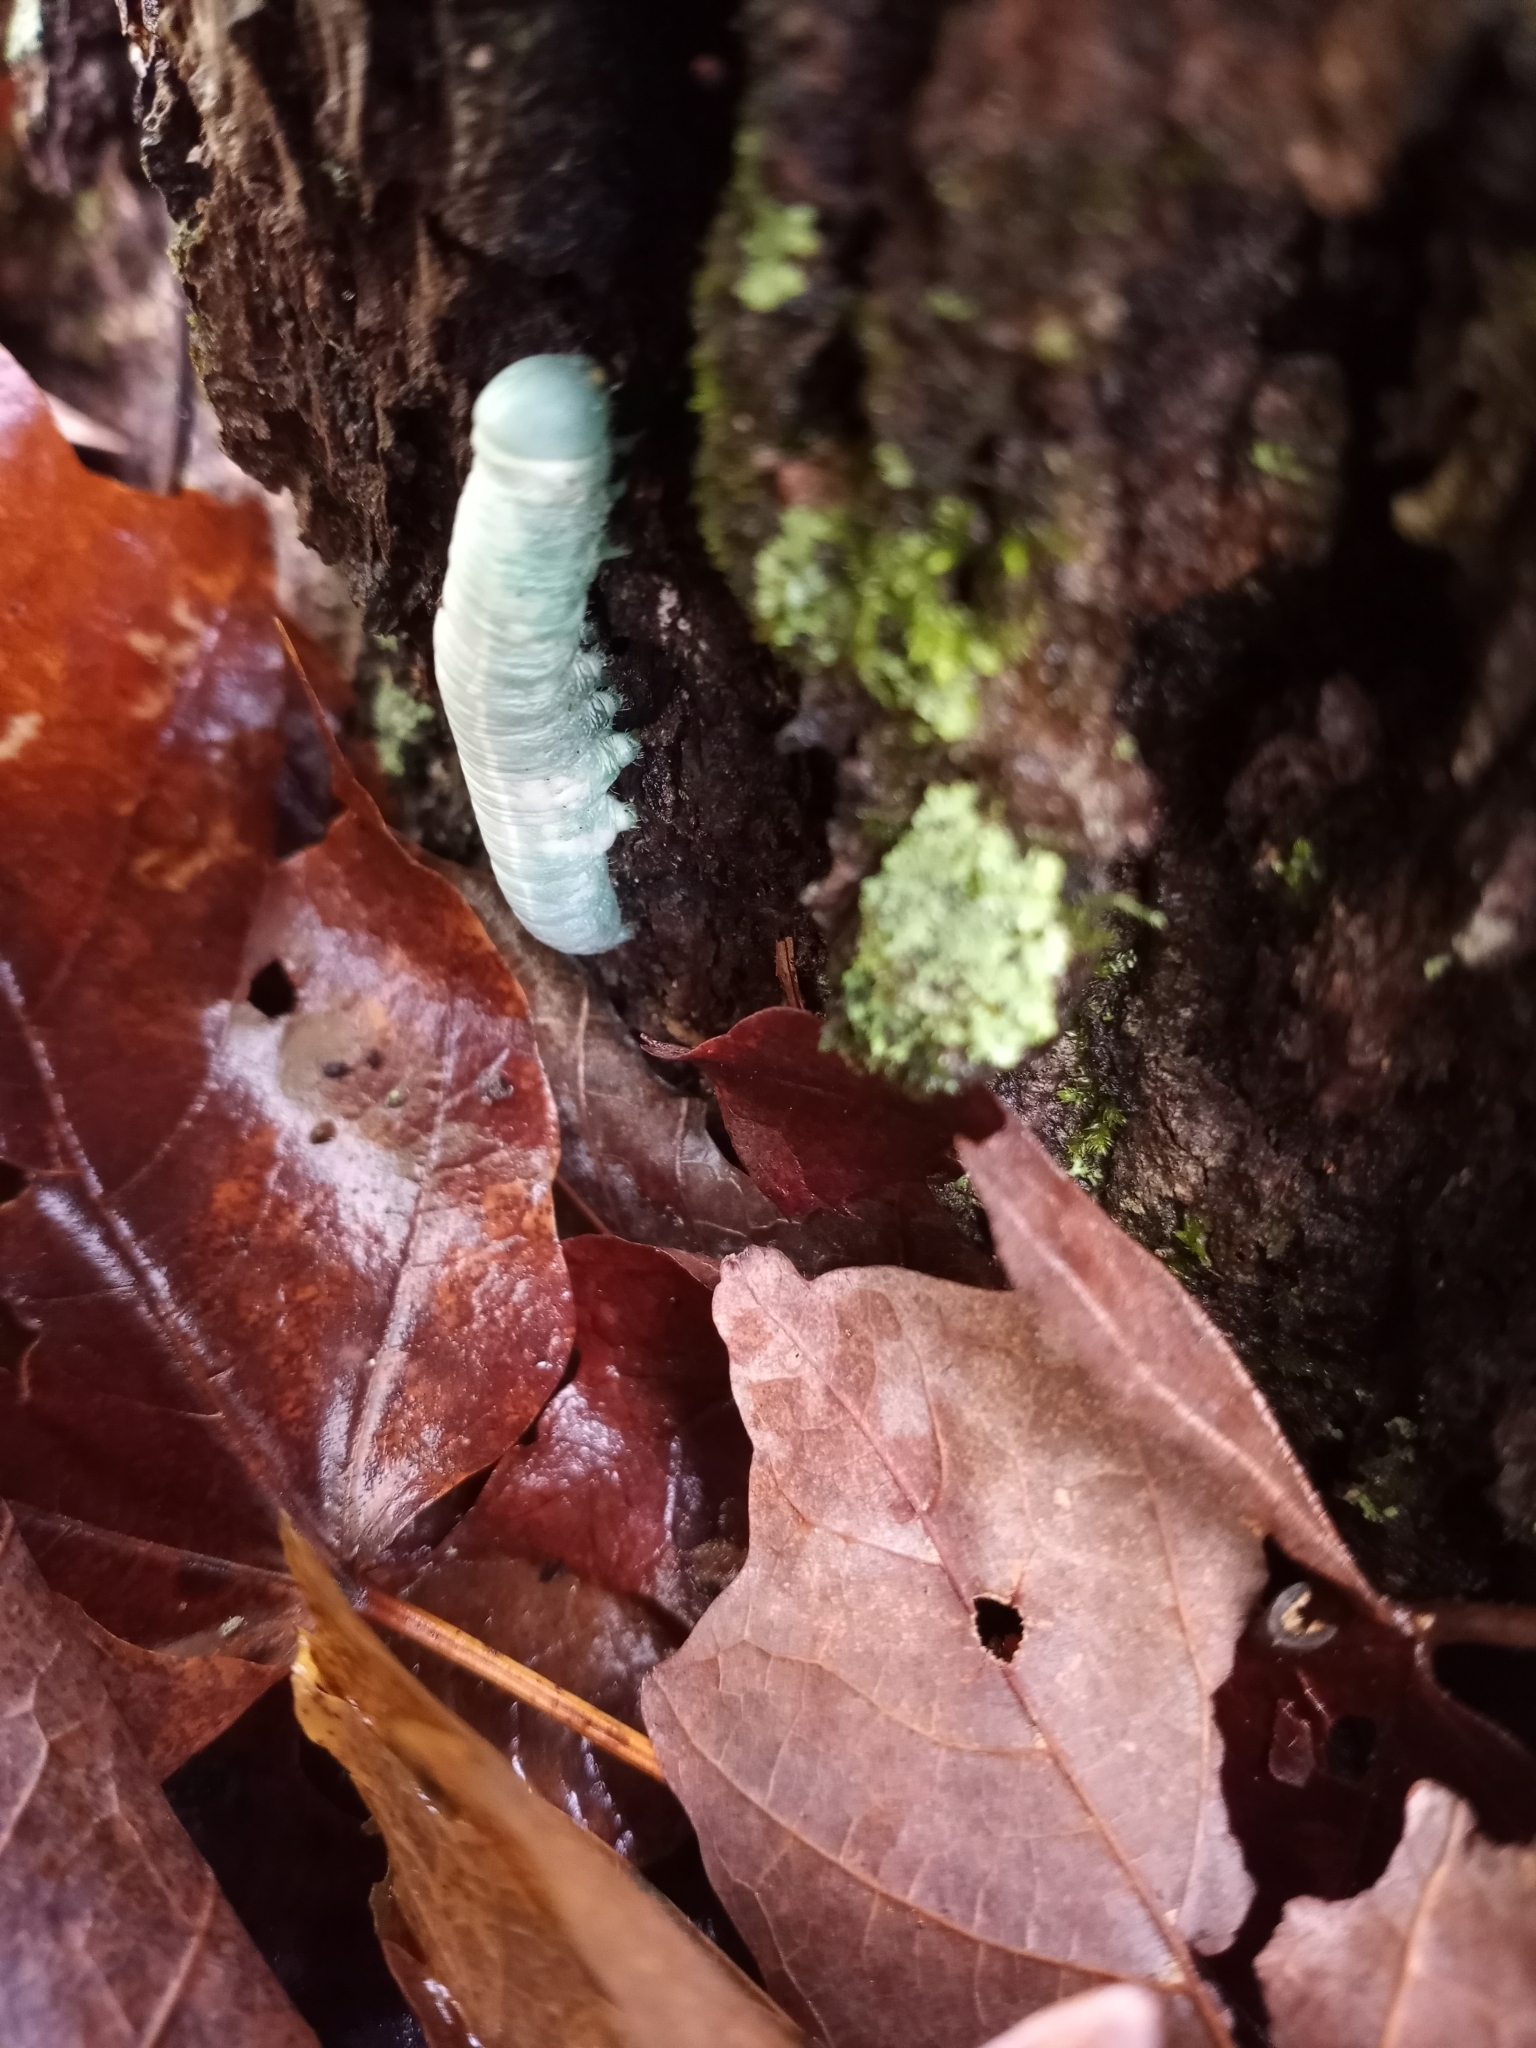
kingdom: Animalia
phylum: Arthropoda
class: Insecta
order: Lepidoptera
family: Notodontidae
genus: Nadata
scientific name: Nadata gibbosa
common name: White-dotted prominent
